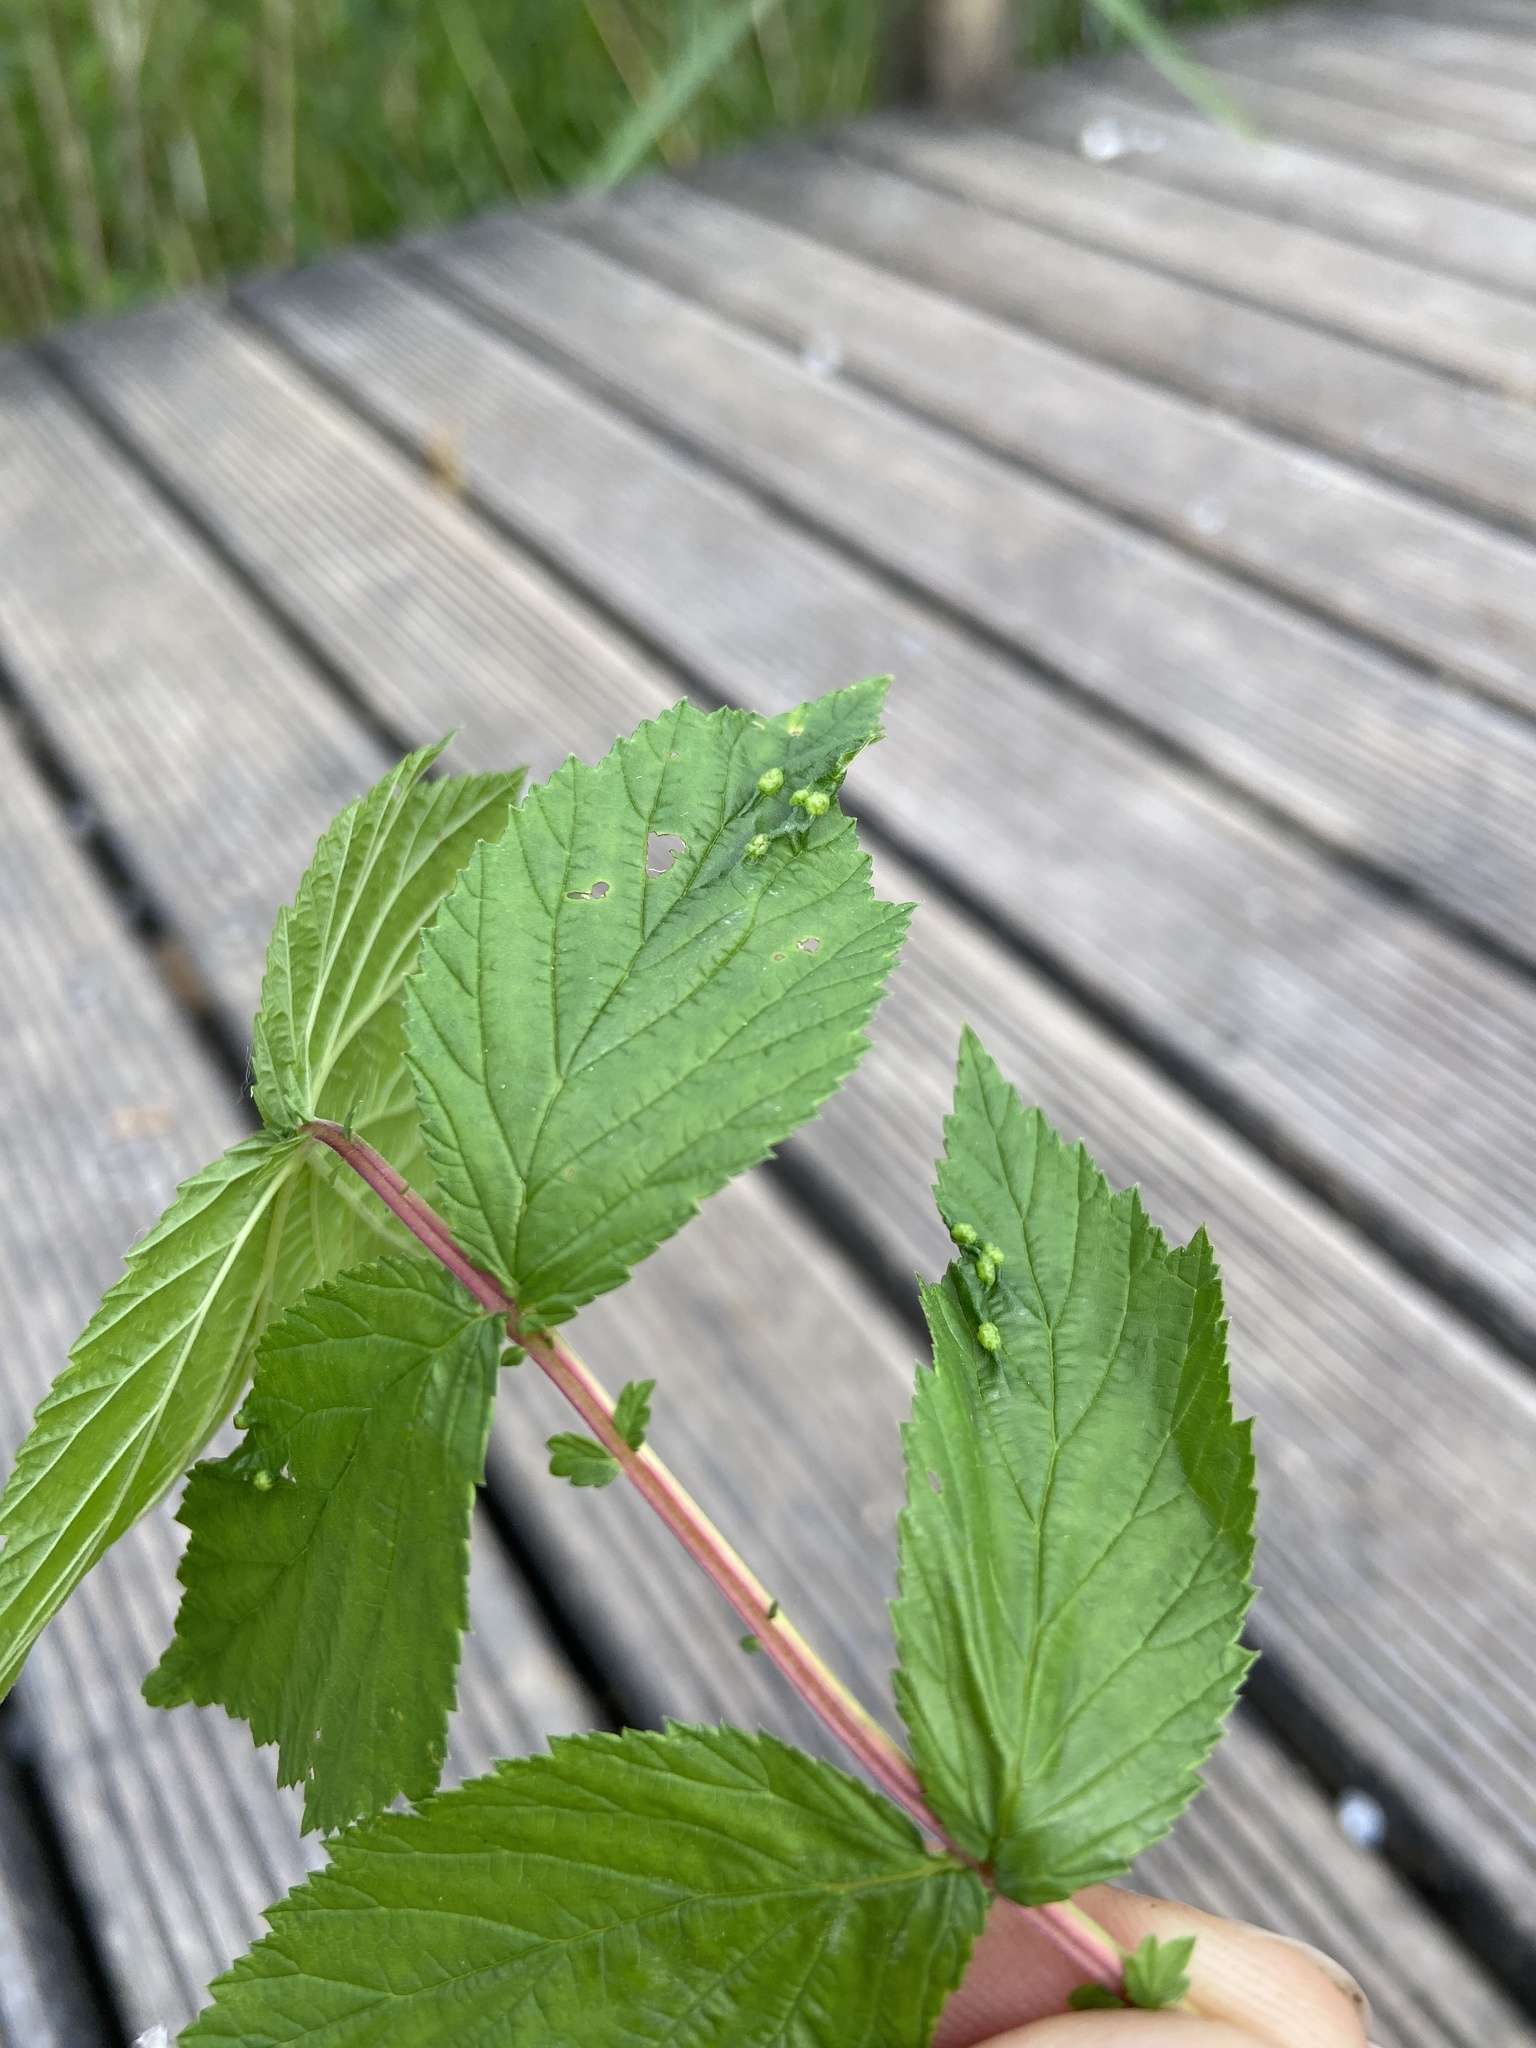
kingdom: Animalia
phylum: Arthropoda
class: Insecta
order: Diptera
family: Cecidomyiidae
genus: Dasineura
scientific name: Dasineura ulmaria
